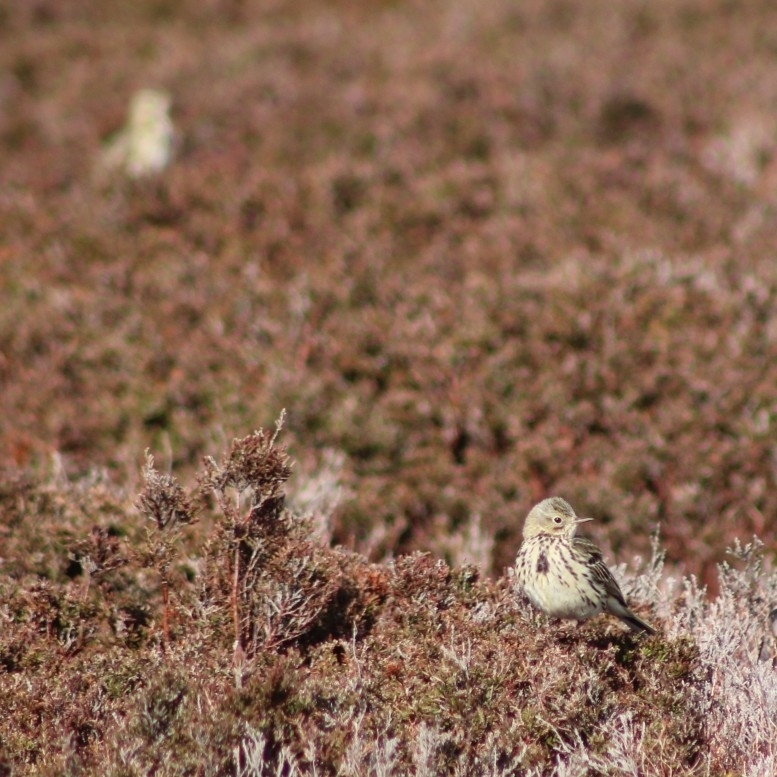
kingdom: Animalia
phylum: Chordata
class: Aves
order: Passeriformes
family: Motacillidae
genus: Anthus
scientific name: Anthus pratensis
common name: Meadow pipit
